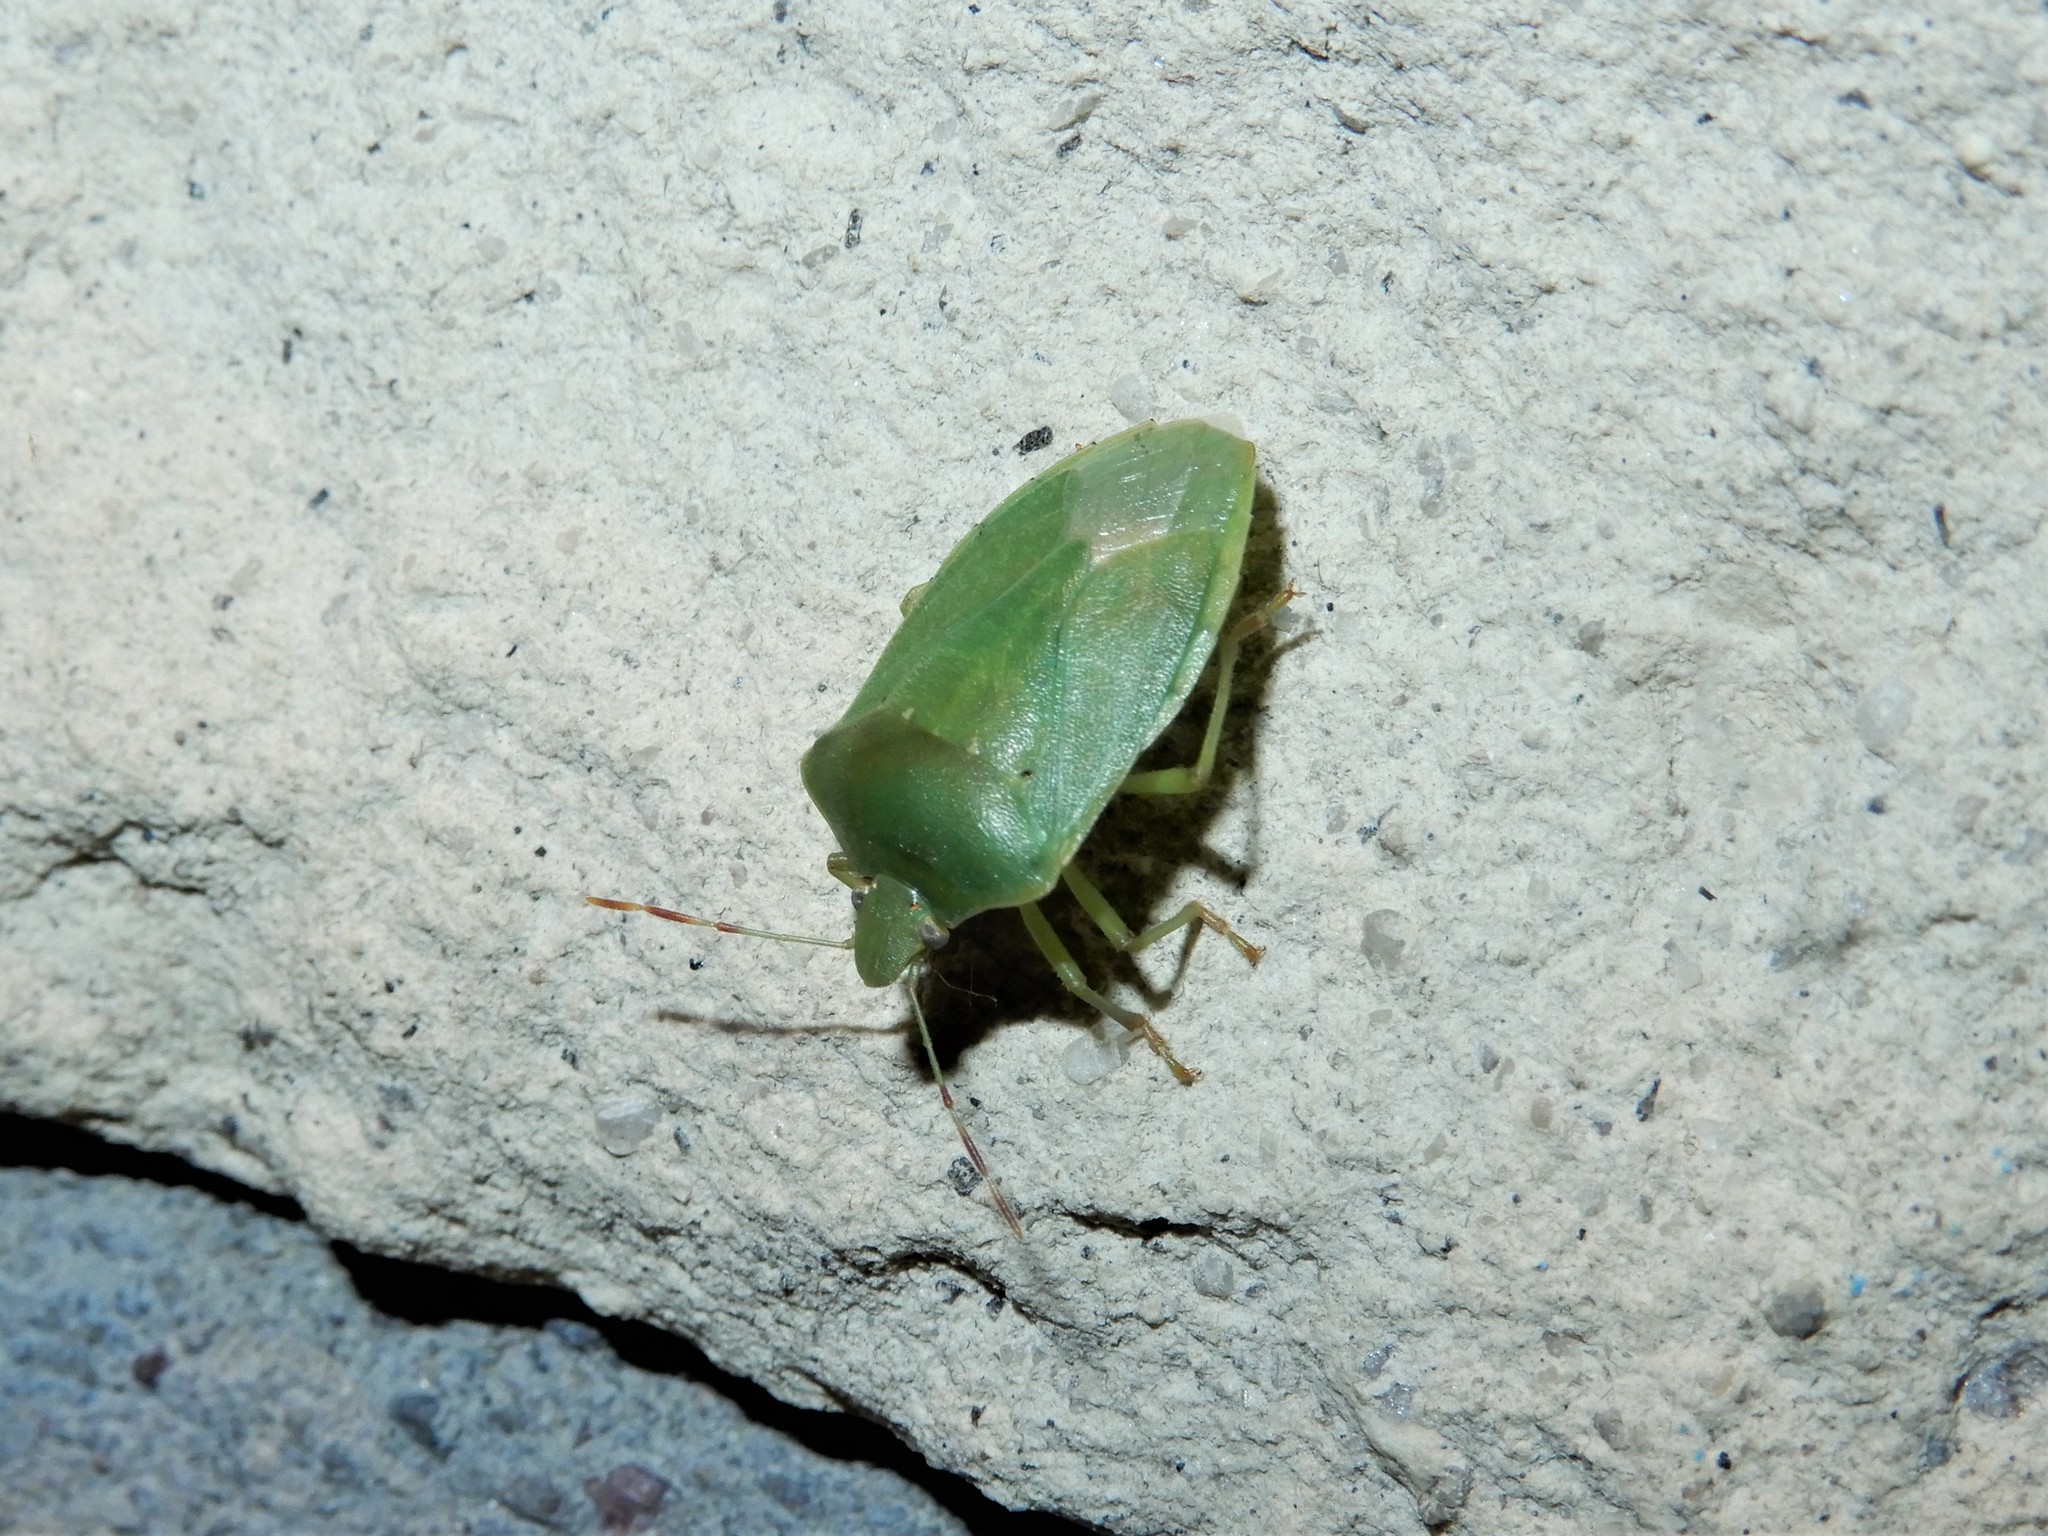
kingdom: Animalia
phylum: Arthropoda
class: Insecta
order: Hemiptera
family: Pentatomidae
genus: Nezara
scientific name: Nezara viridula
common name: Southern green stink bug
